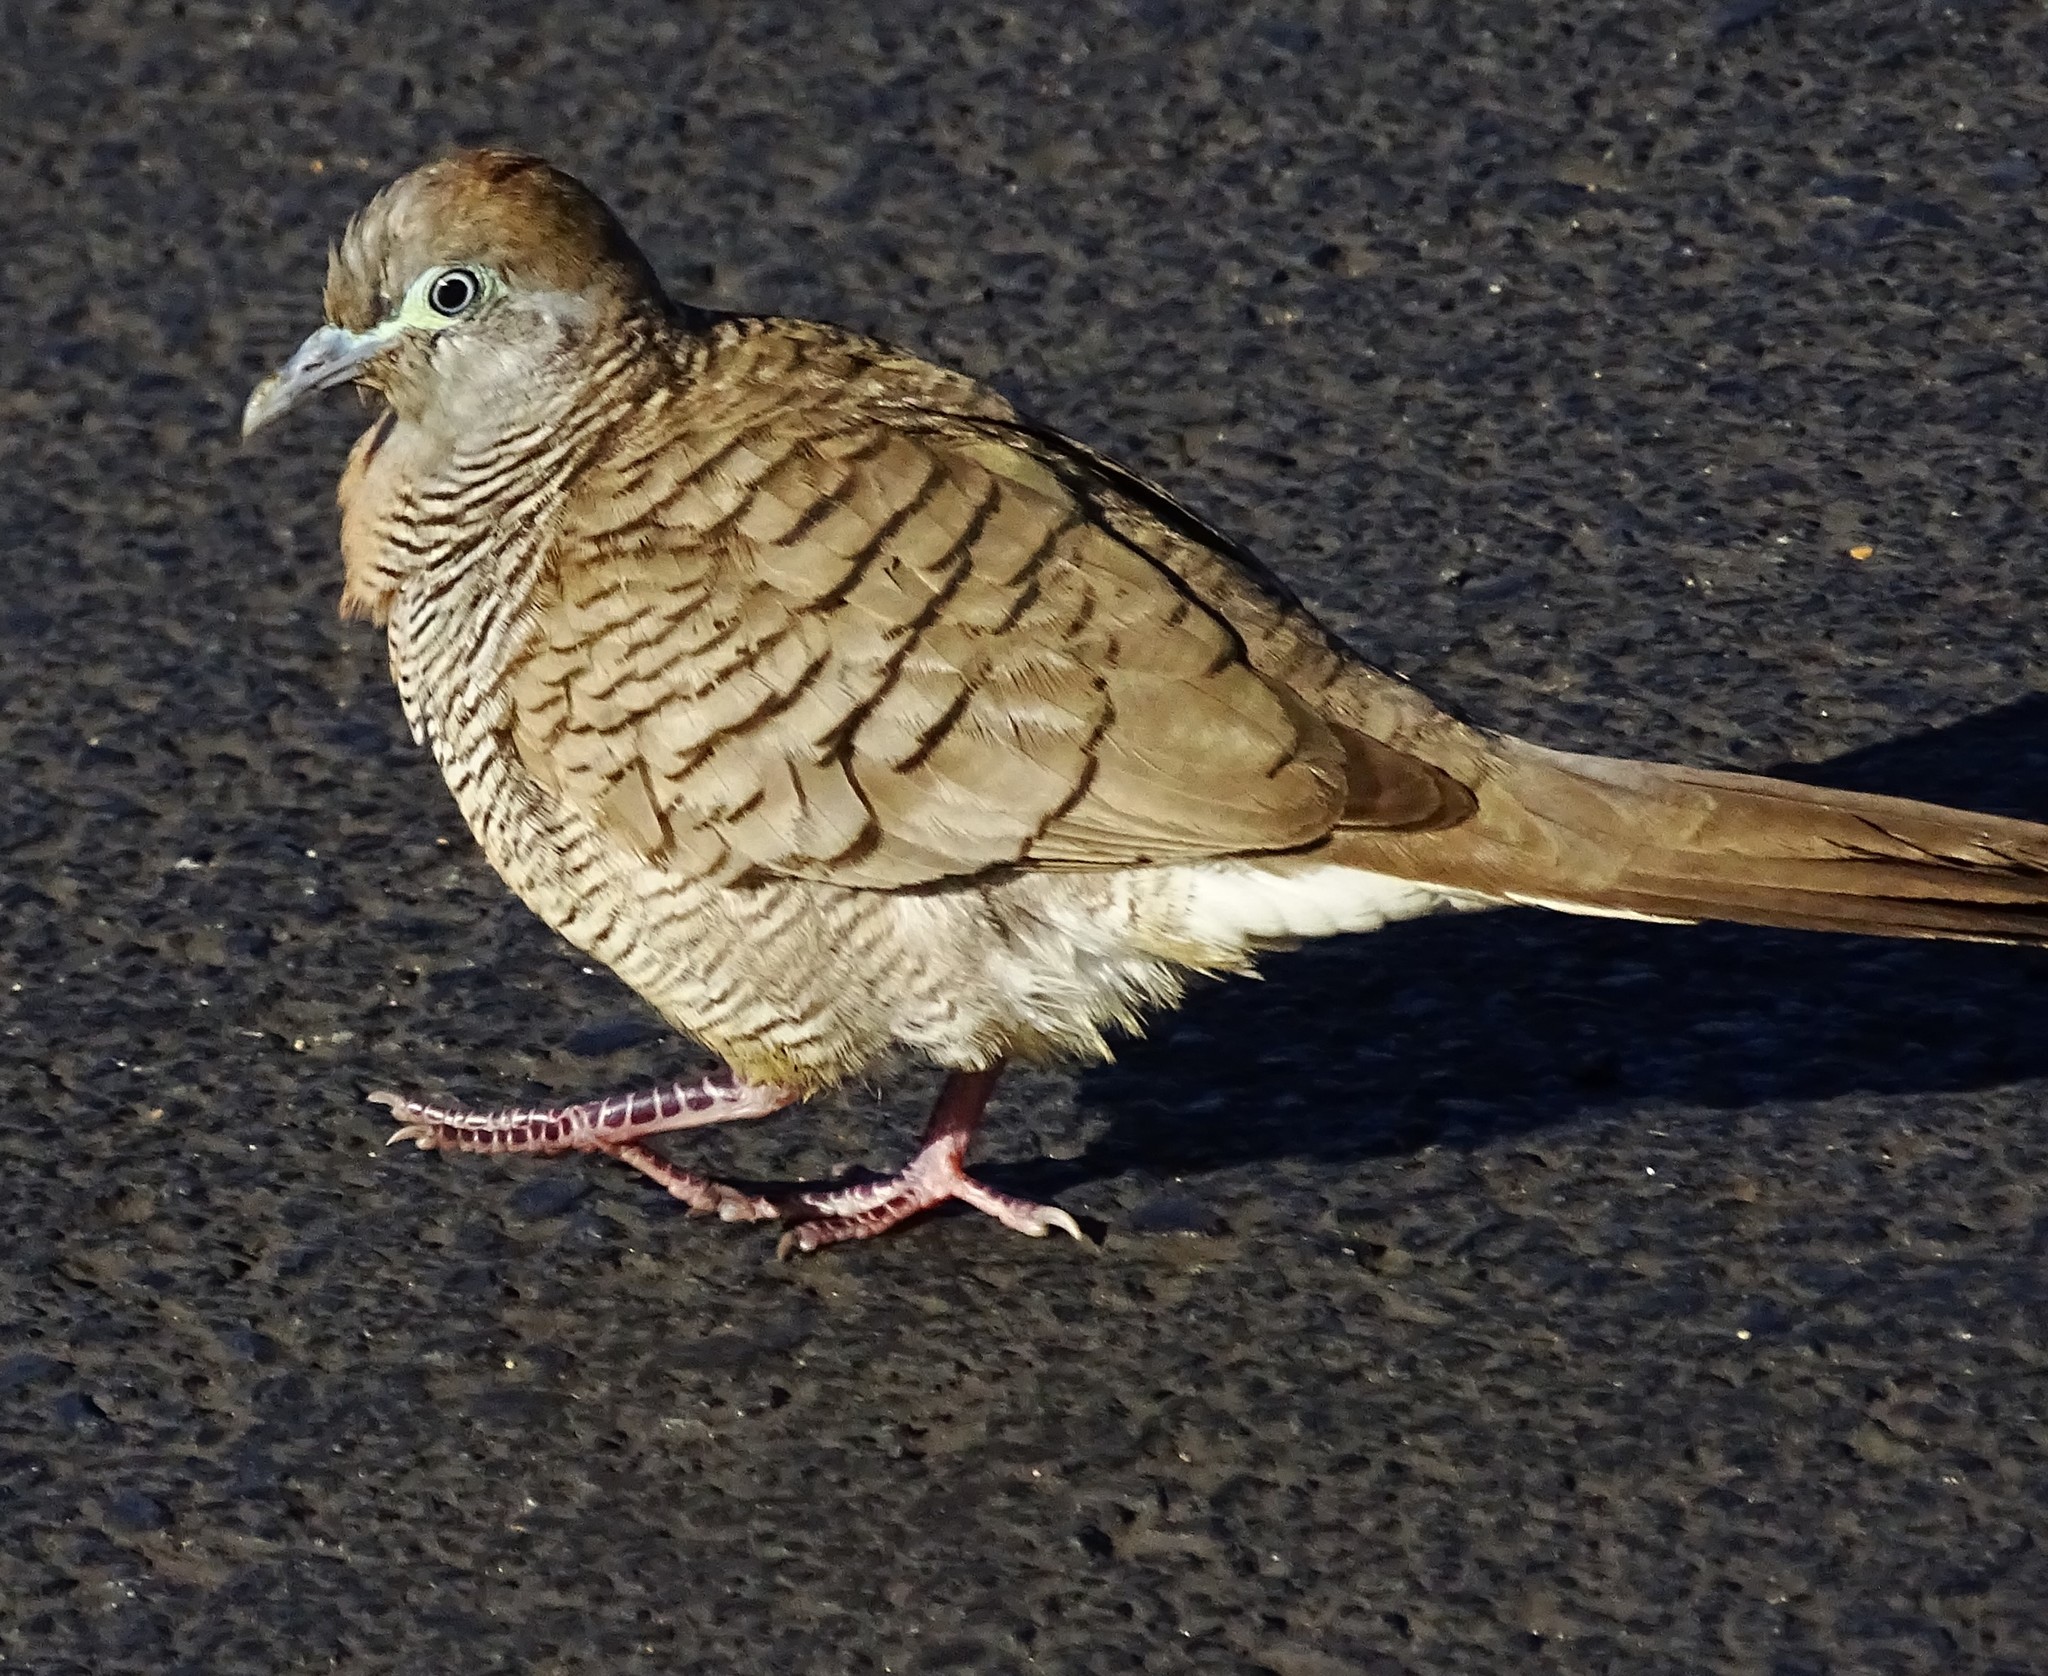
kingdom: Animalia
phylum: Chordata
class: Aves
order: Columbiformes
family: Columbidae
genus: Geopelia
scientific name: Geopelia striata
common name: Zebra dove
